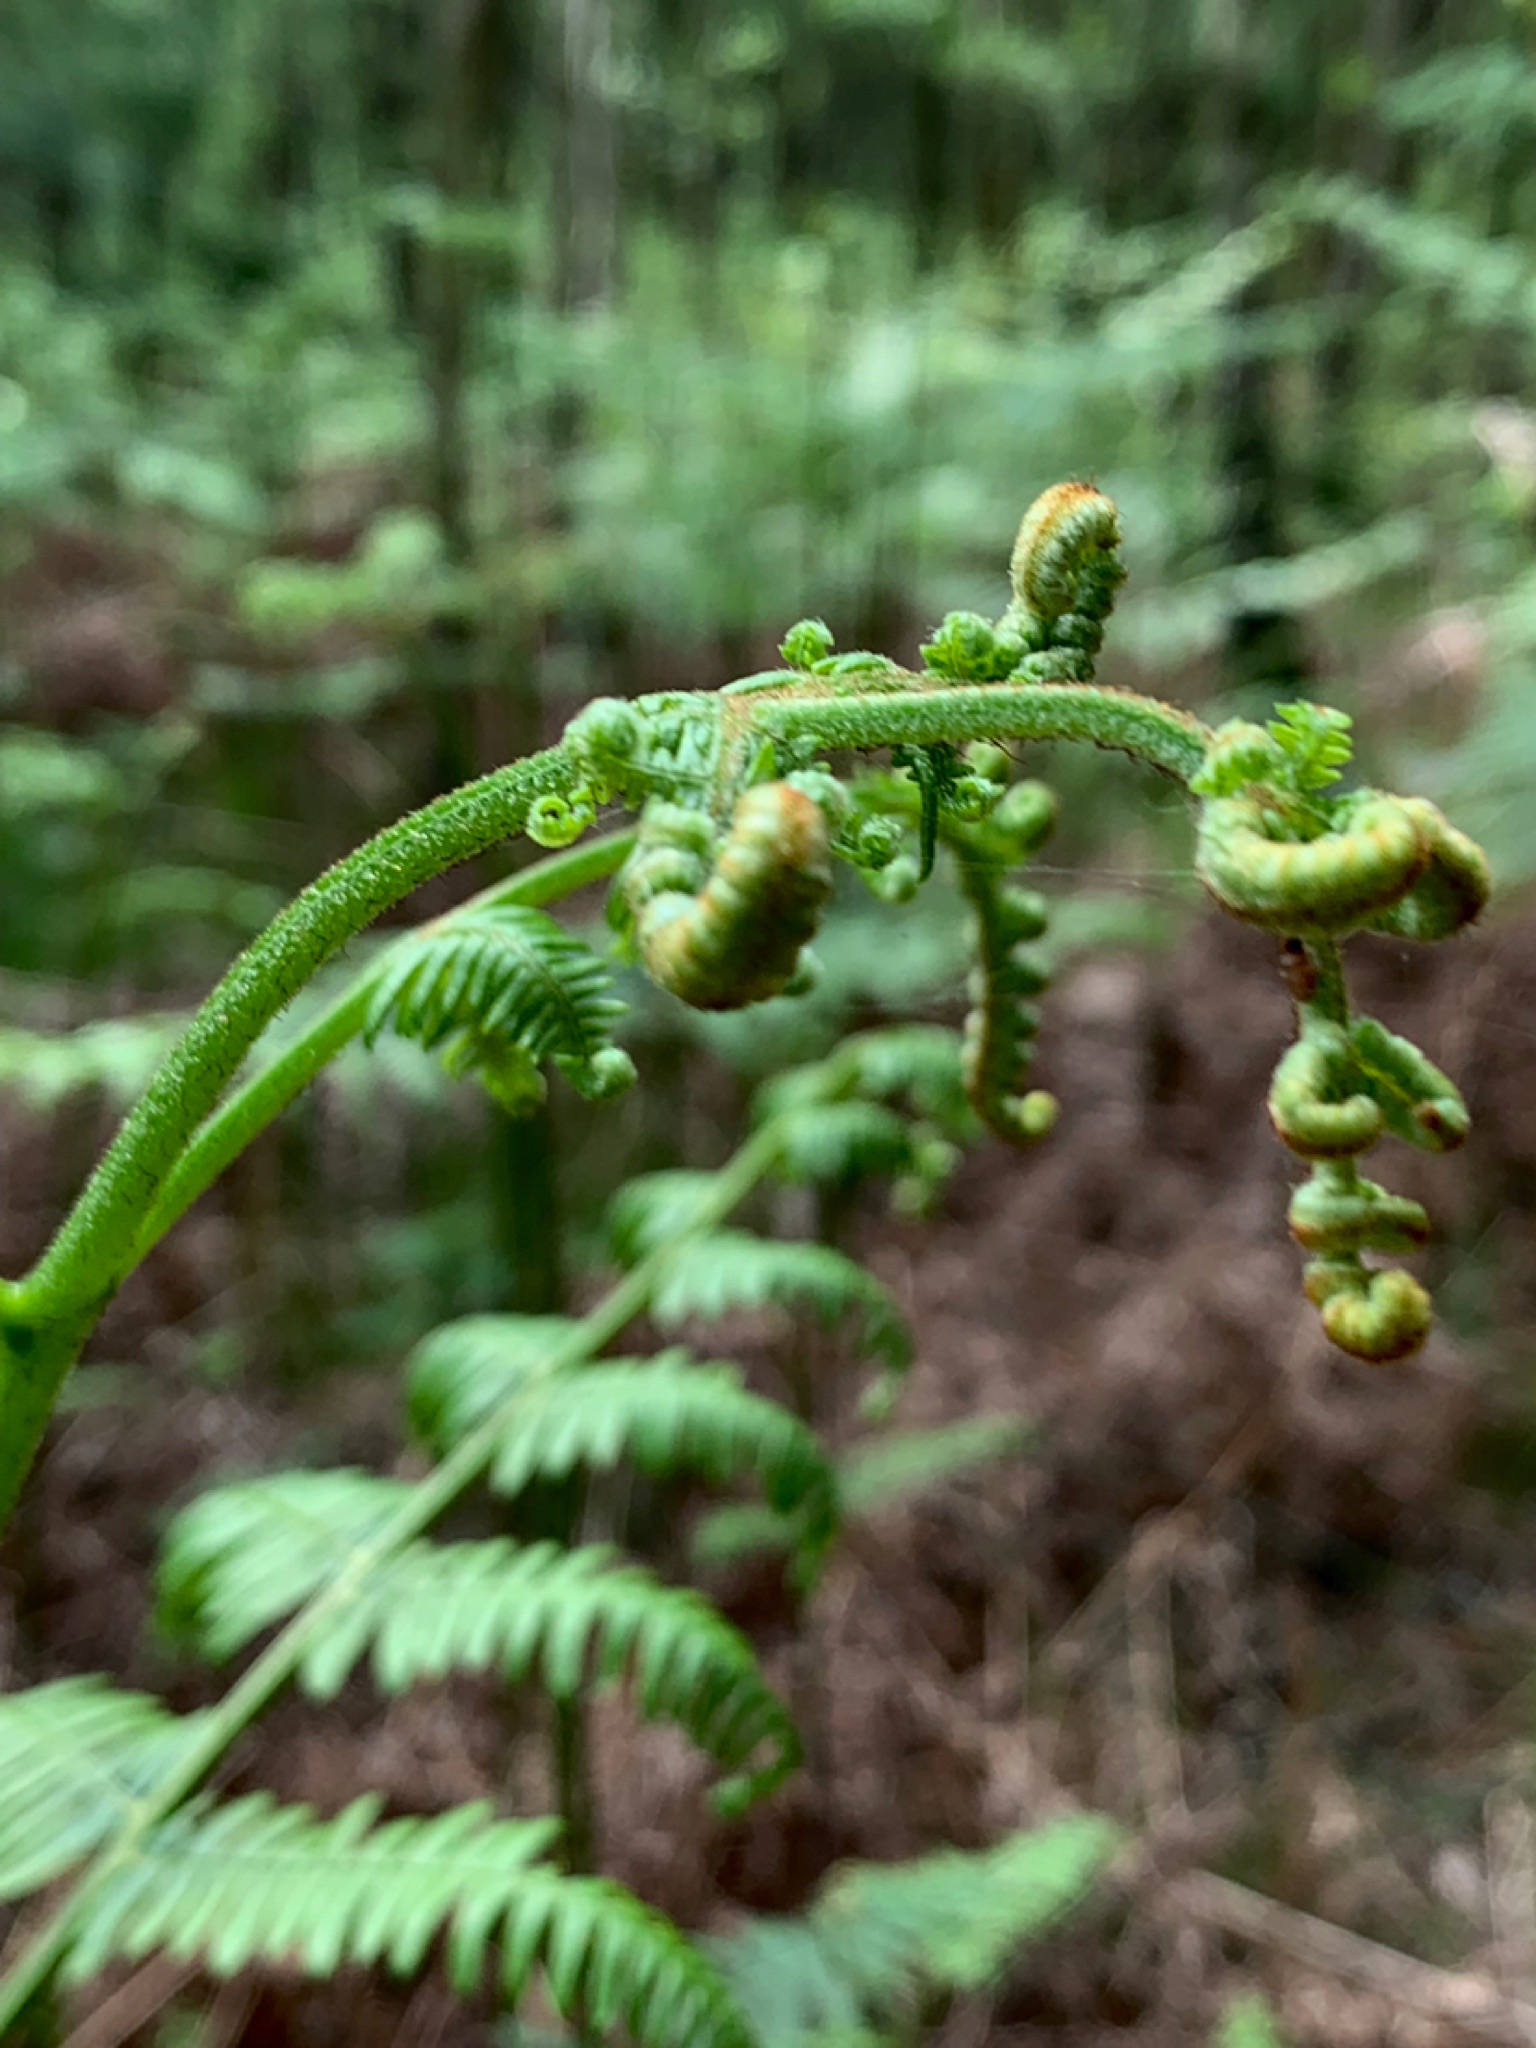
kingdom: Plantae
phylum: Tracheophyta
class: Polypodiopsida
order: Polypodiales
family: Dennstaedtiaceae
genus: Pteridium
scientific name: Pteridium aquilinum
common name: Bracken
